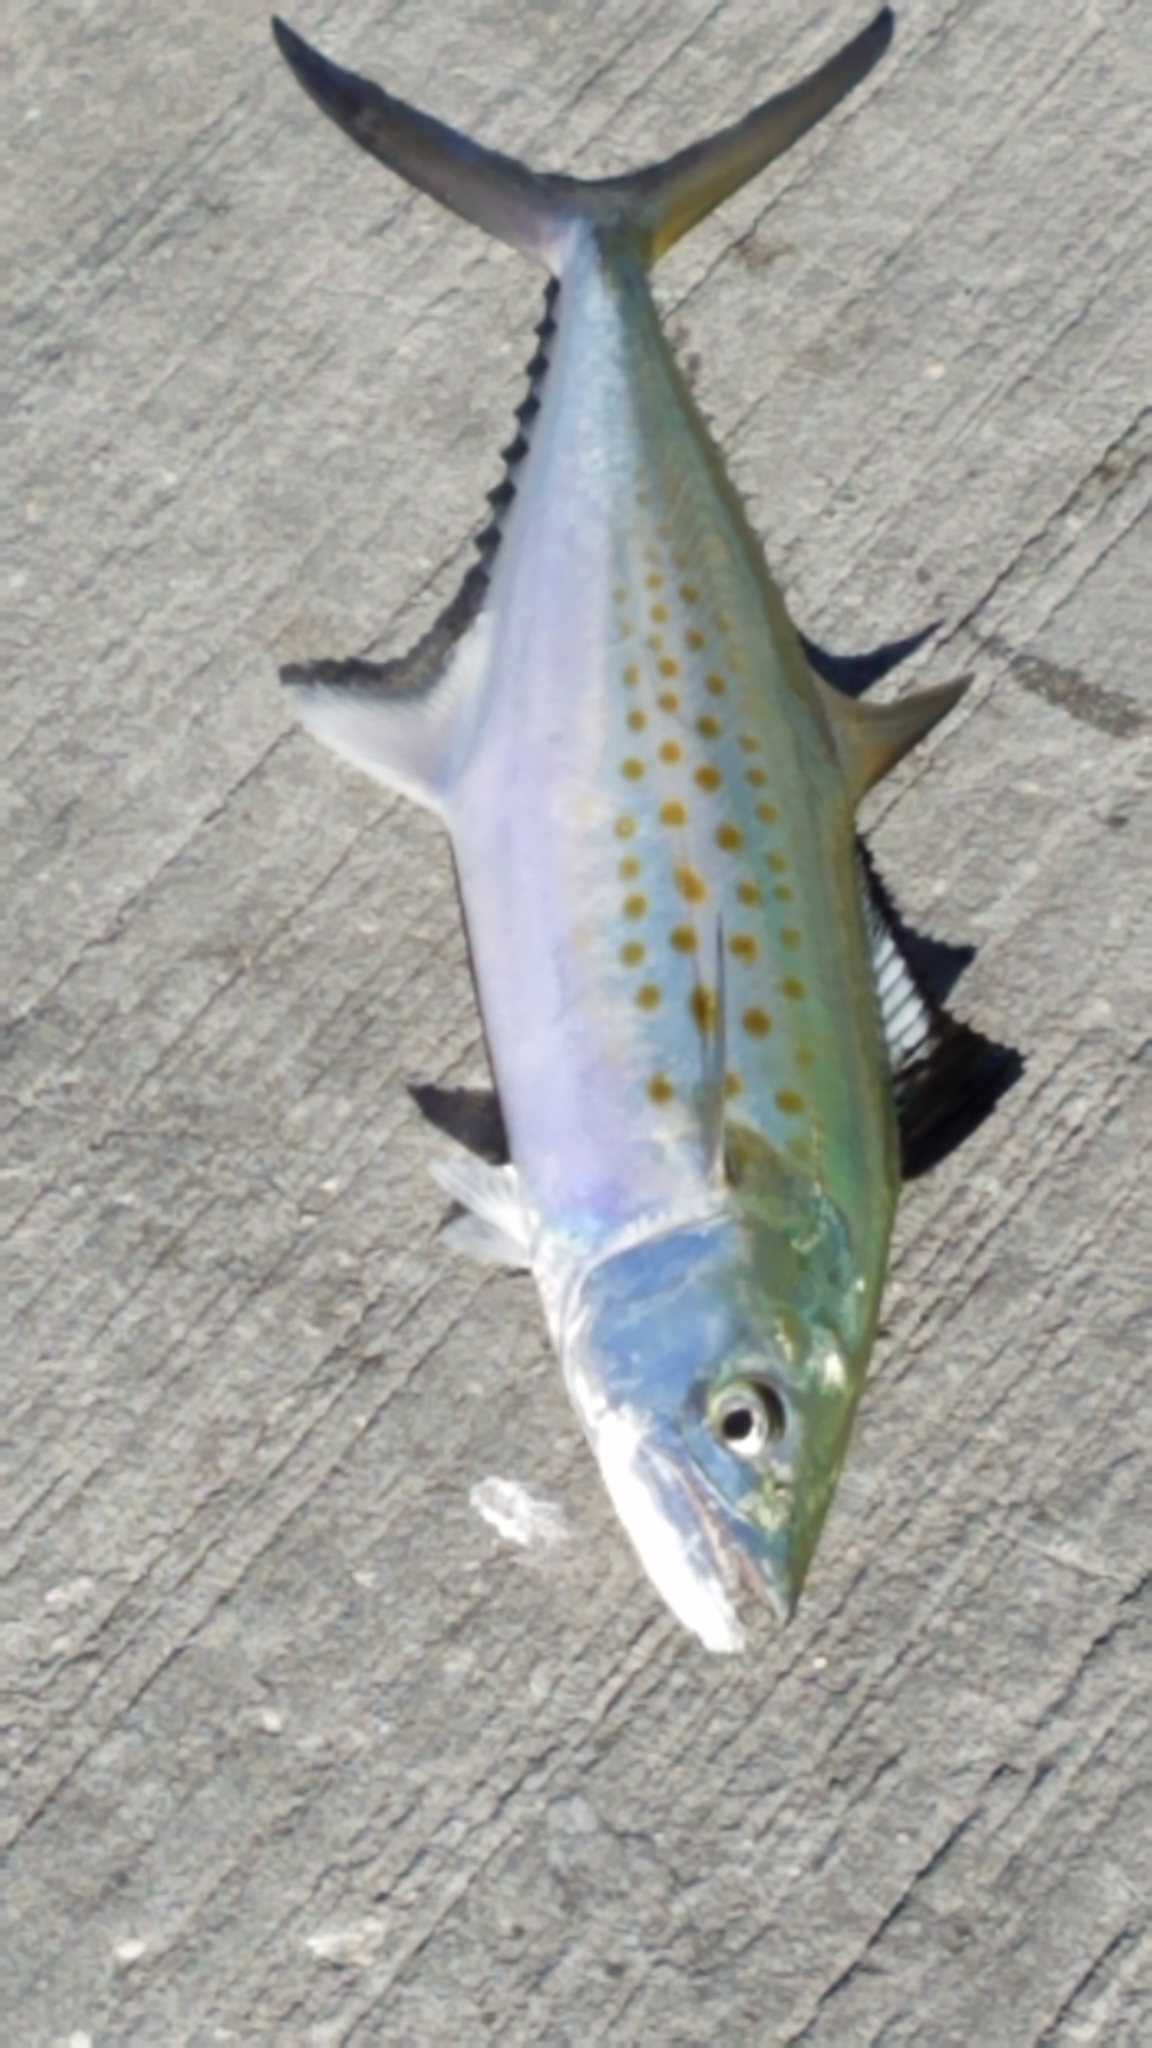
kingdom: Animalia
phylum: Chordata
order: Perciformes
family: Scombridae
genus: Scomberomorus
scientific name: Scomberomorus maculatus
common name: Spanish mackerel
